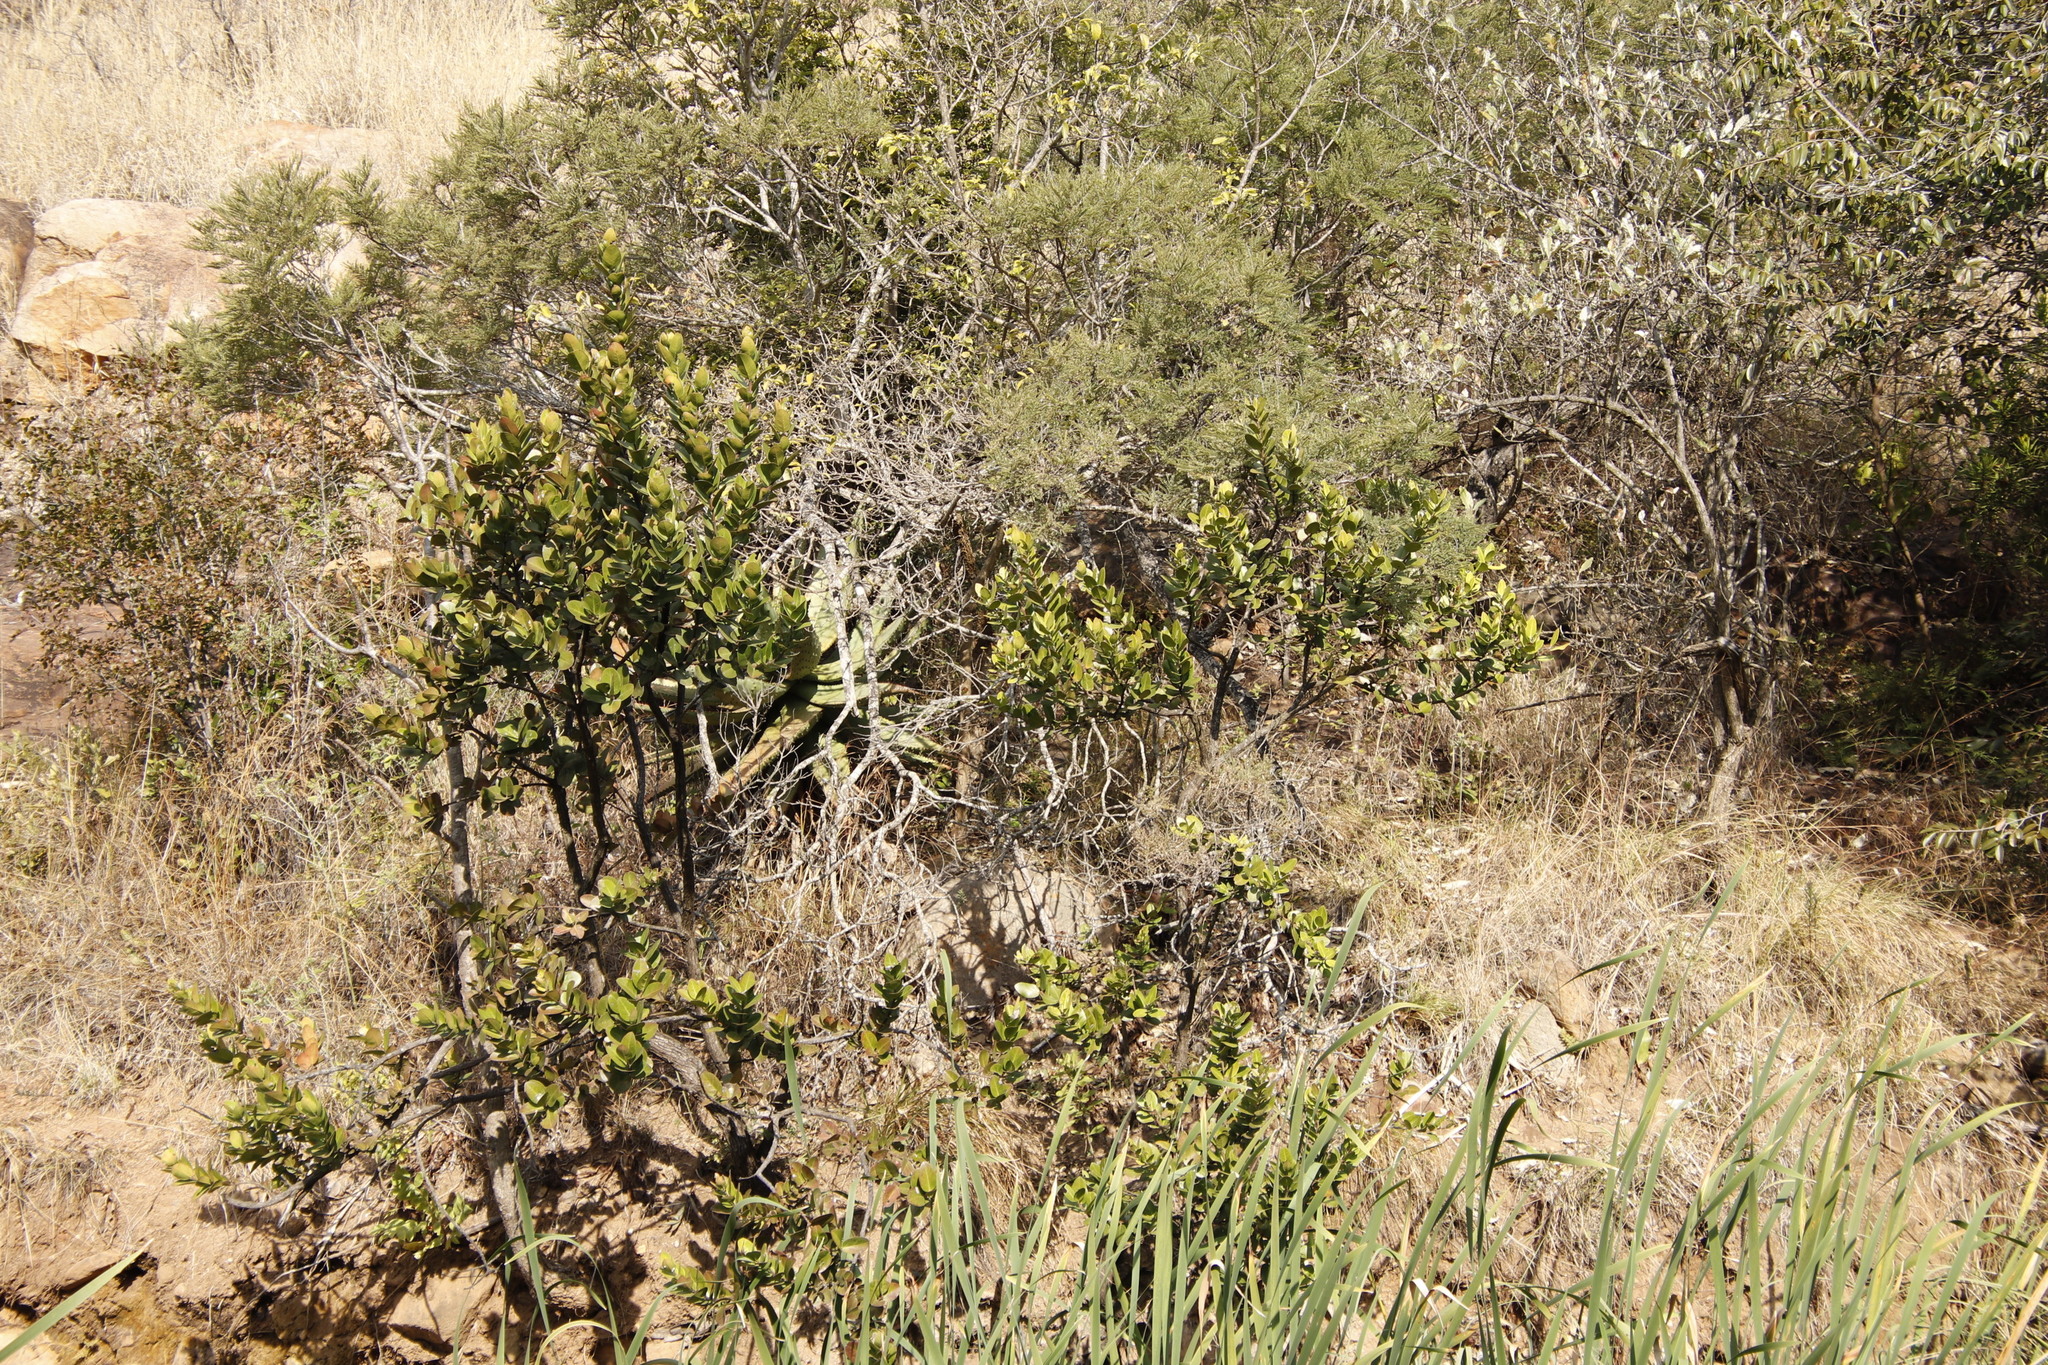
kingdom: Plantae
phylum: Tracheophyta
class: Magnoliopsida
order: Myrtales
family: Myrtaceae
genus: Syzygium
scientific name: Syzygium cordatum
